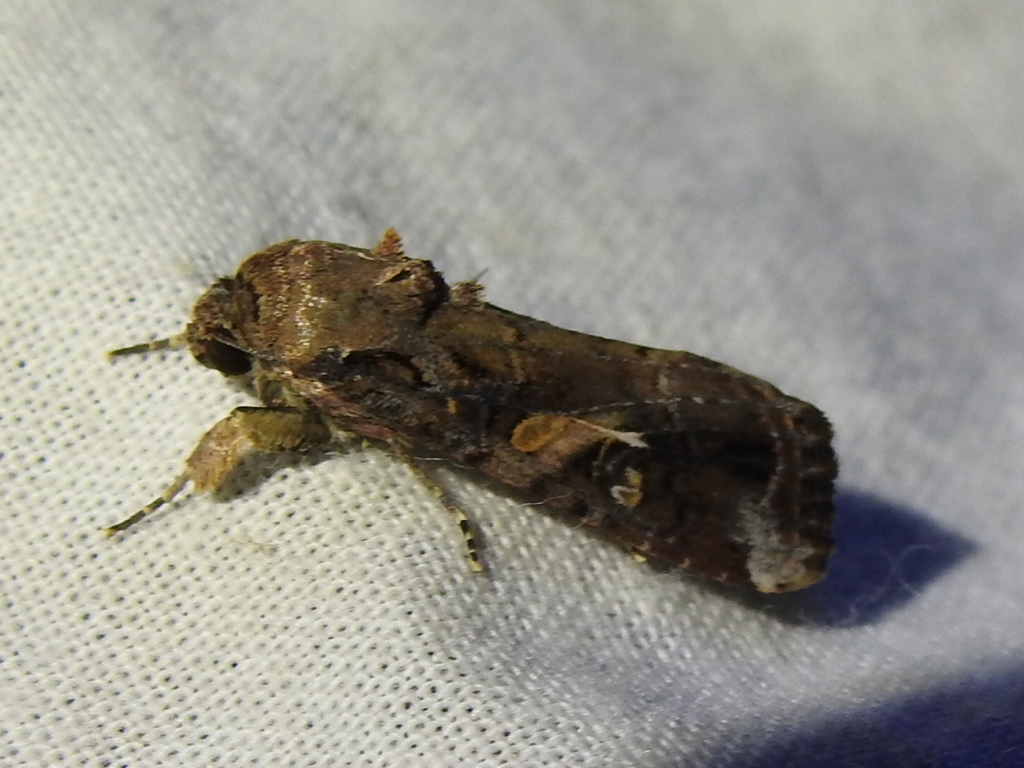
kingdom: Animalia
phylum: Arthropoda
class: Insecta
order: Lepidoptera
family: Noctuidae
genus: Spodoptera
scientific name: Spodoptera frugiperda
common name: Fall armyworm
